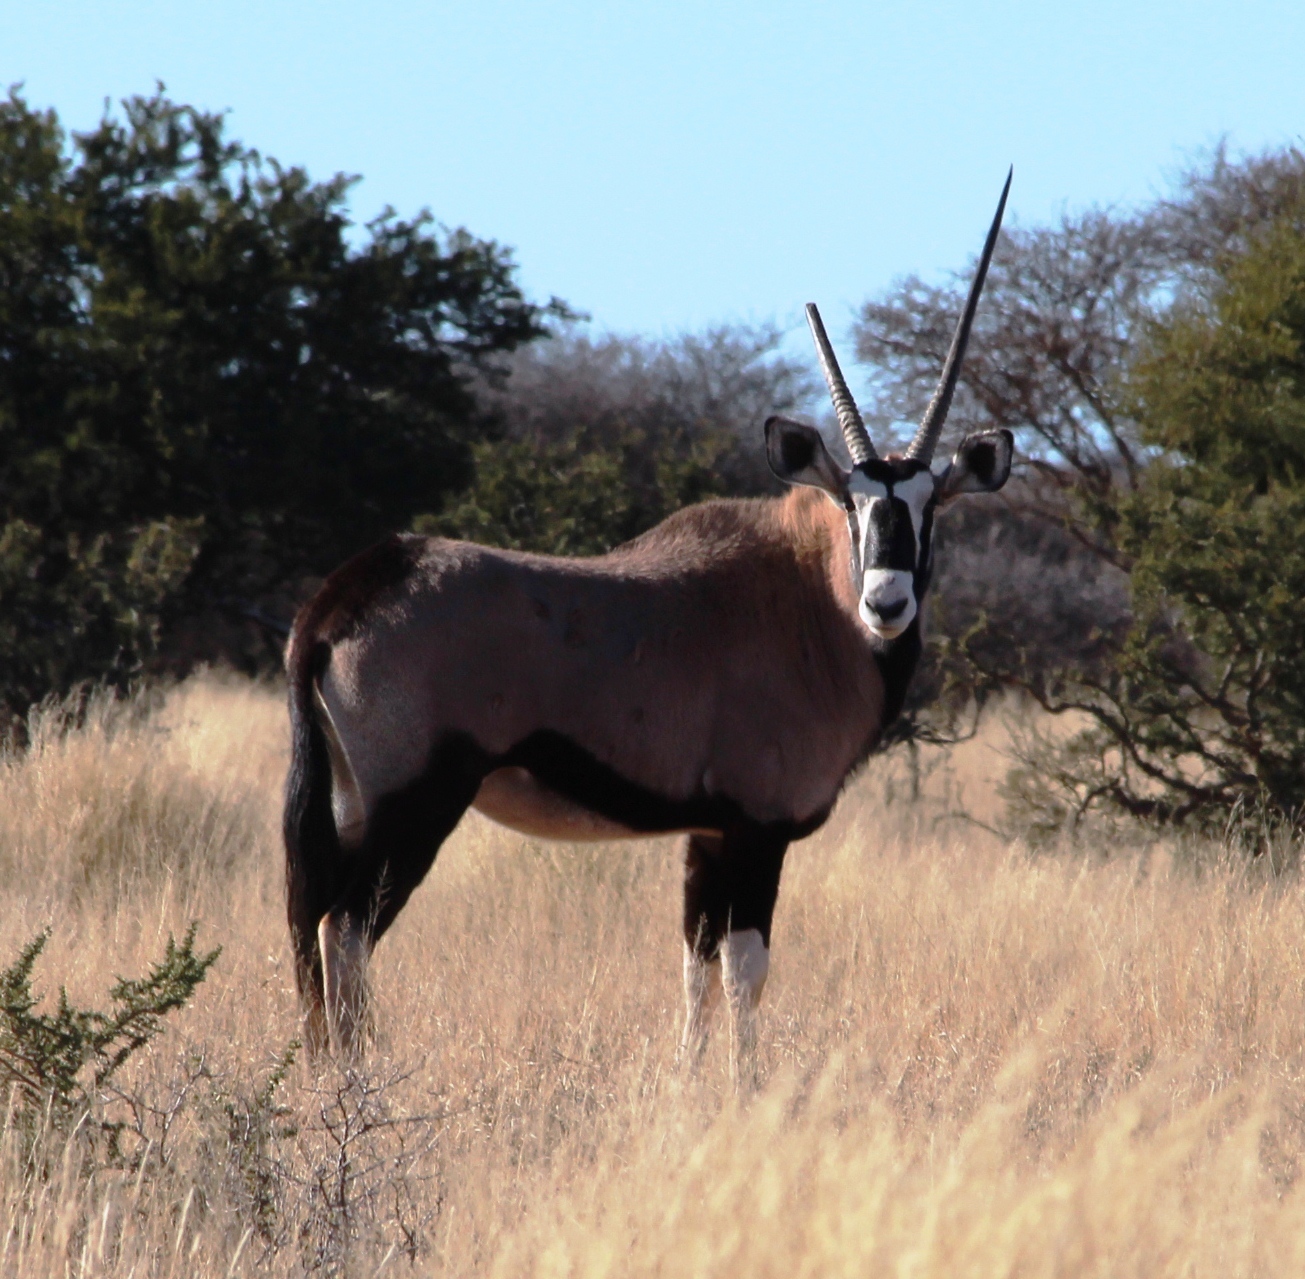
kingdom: Animalia
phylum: Chordata
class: Mammalia
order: Artiodactyla
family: Bovidae
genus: Oryx
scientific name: Oryx gazella
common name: Gemsbok
